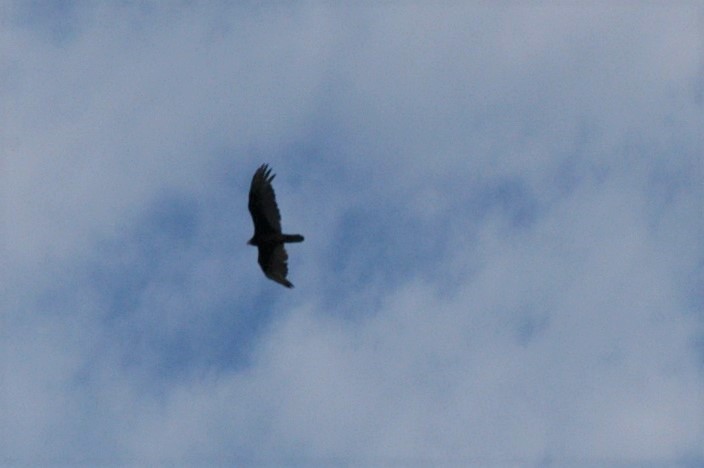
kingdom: Animalia
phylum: Chordata
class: Aves
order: Accipitriformes
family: Cathartidae
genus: Cathartes
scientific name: Cathartes aura
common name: Turkey vulture
